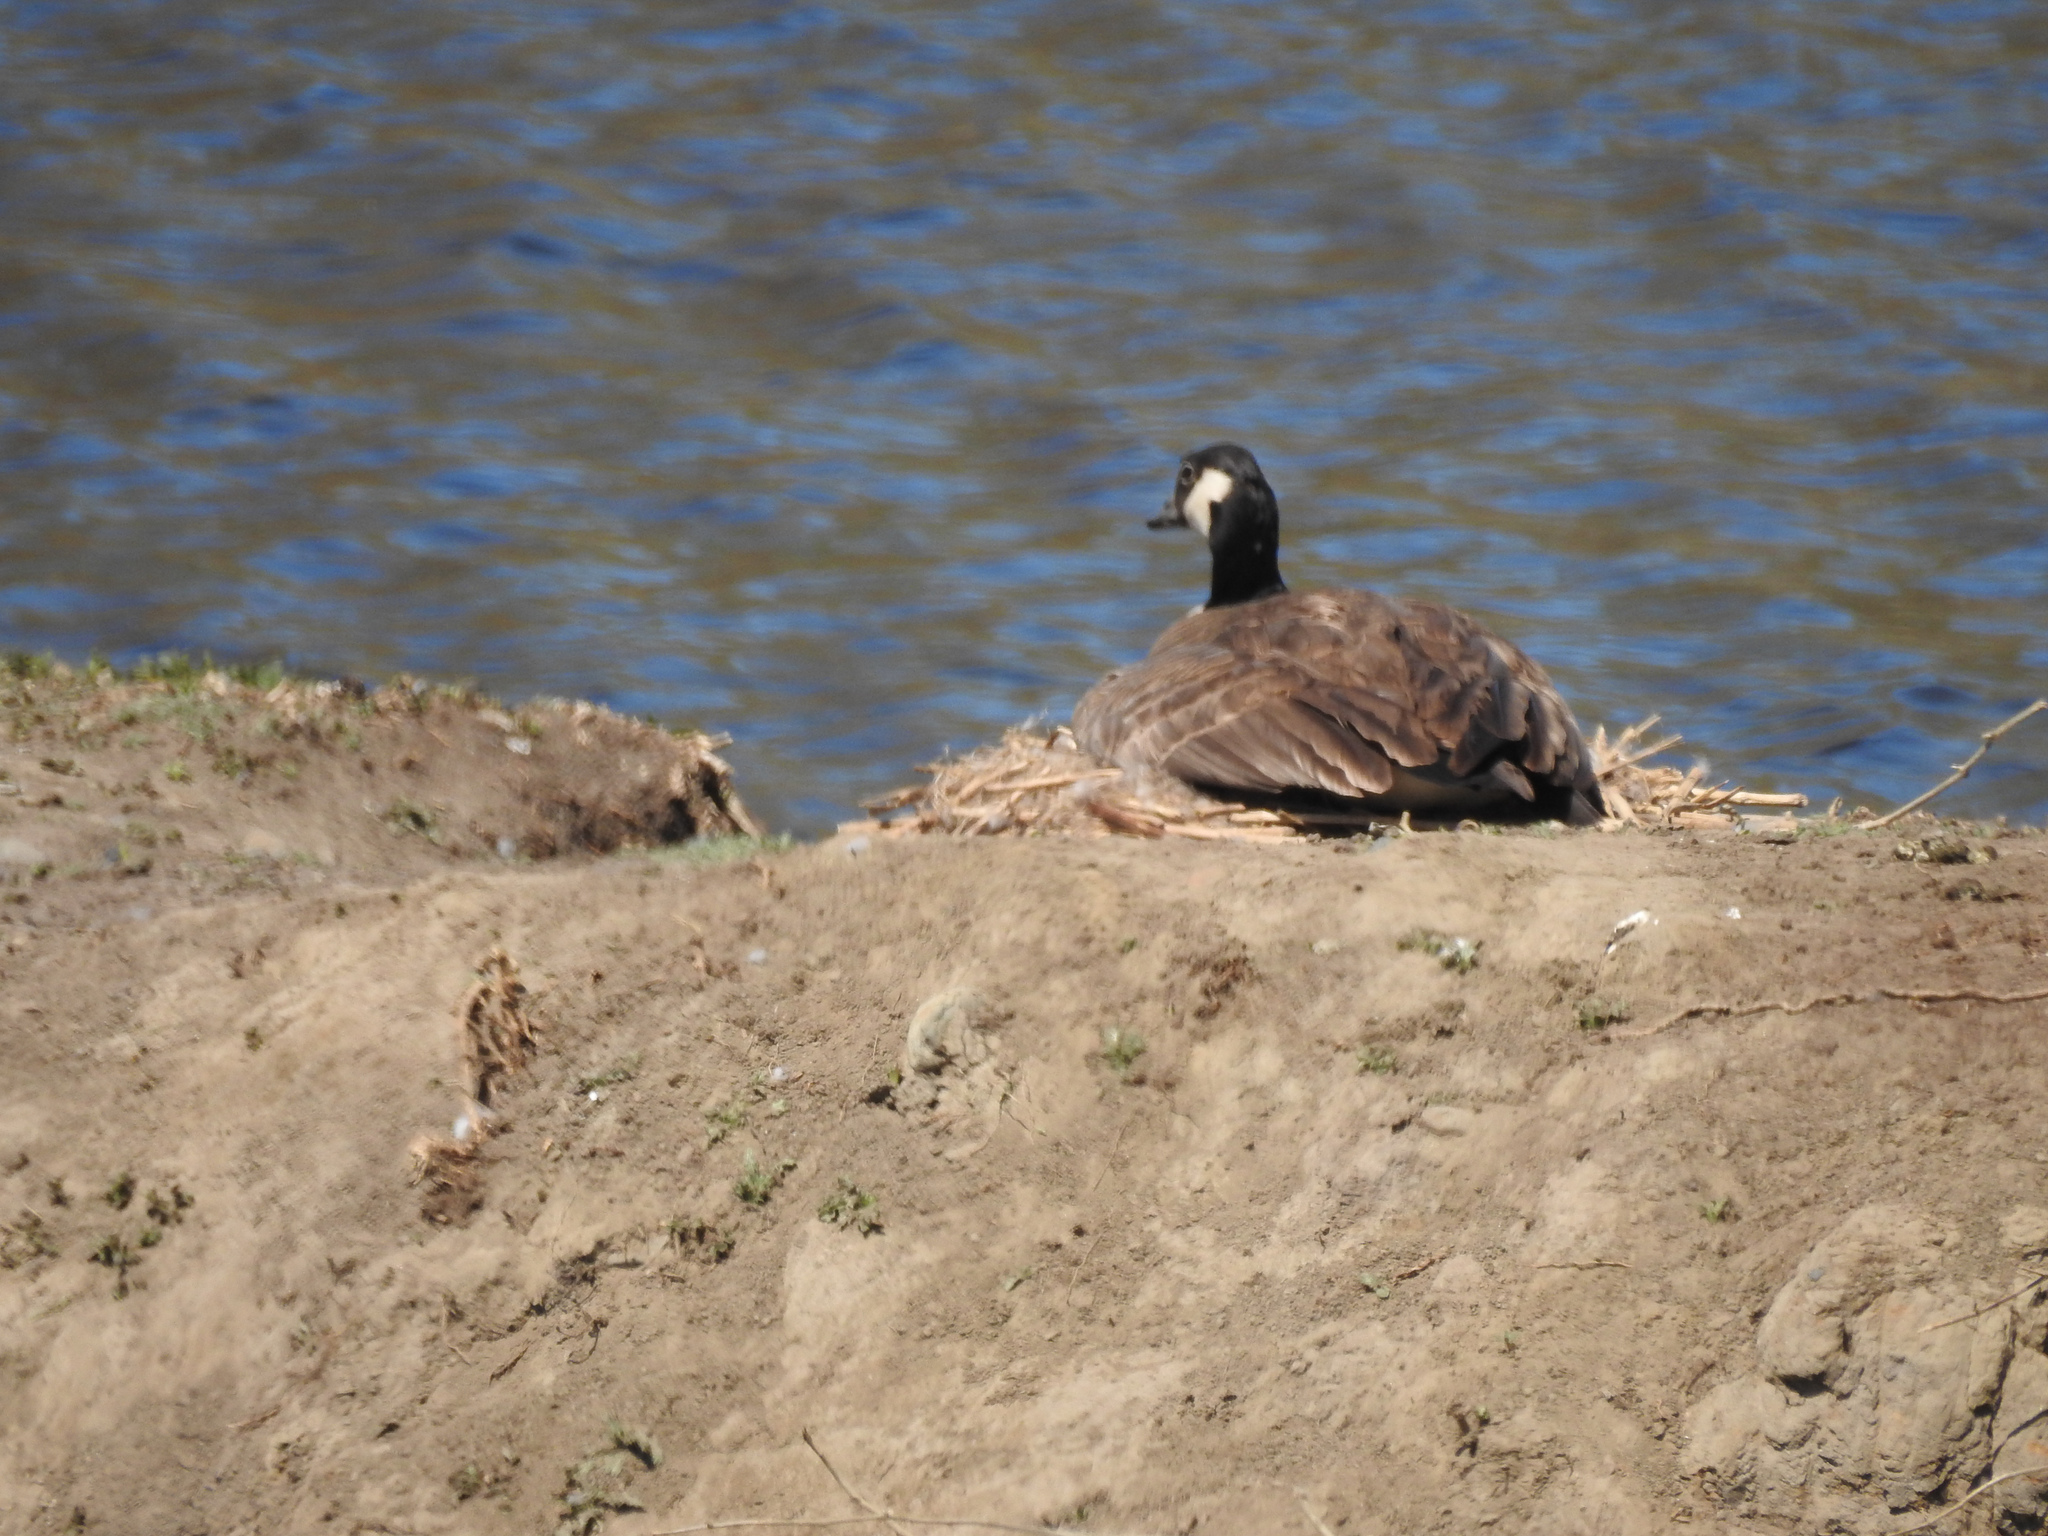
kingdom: Animalia
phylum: Chordata
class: Aves
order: Anseriformes
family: Anatidae
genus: Branta
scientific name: Branta canadensis
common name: Canada goose
